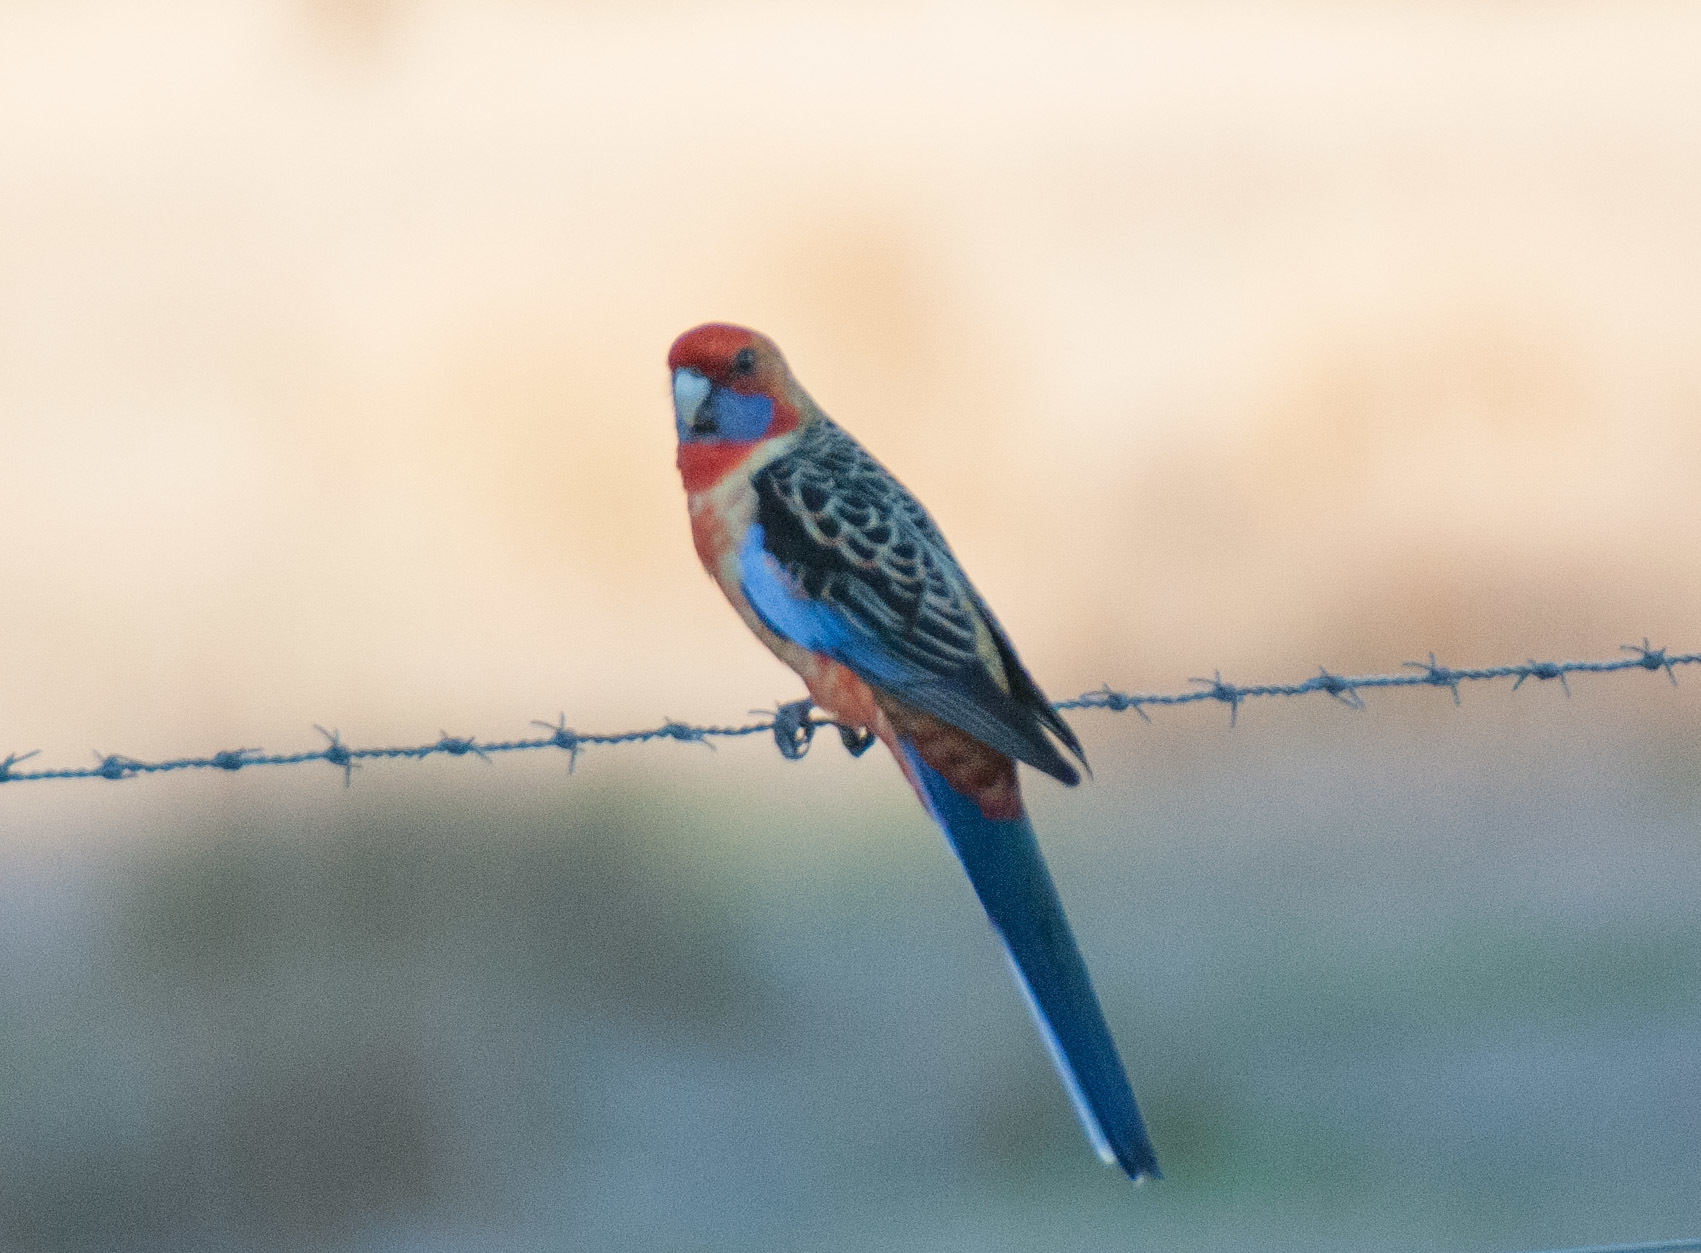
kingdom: Animalia
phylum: Chordata
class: Aves
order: Psittaciformes
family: Psittacidae
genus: Platycercus
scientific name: Platycercus elegans
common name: Crimson rosella
